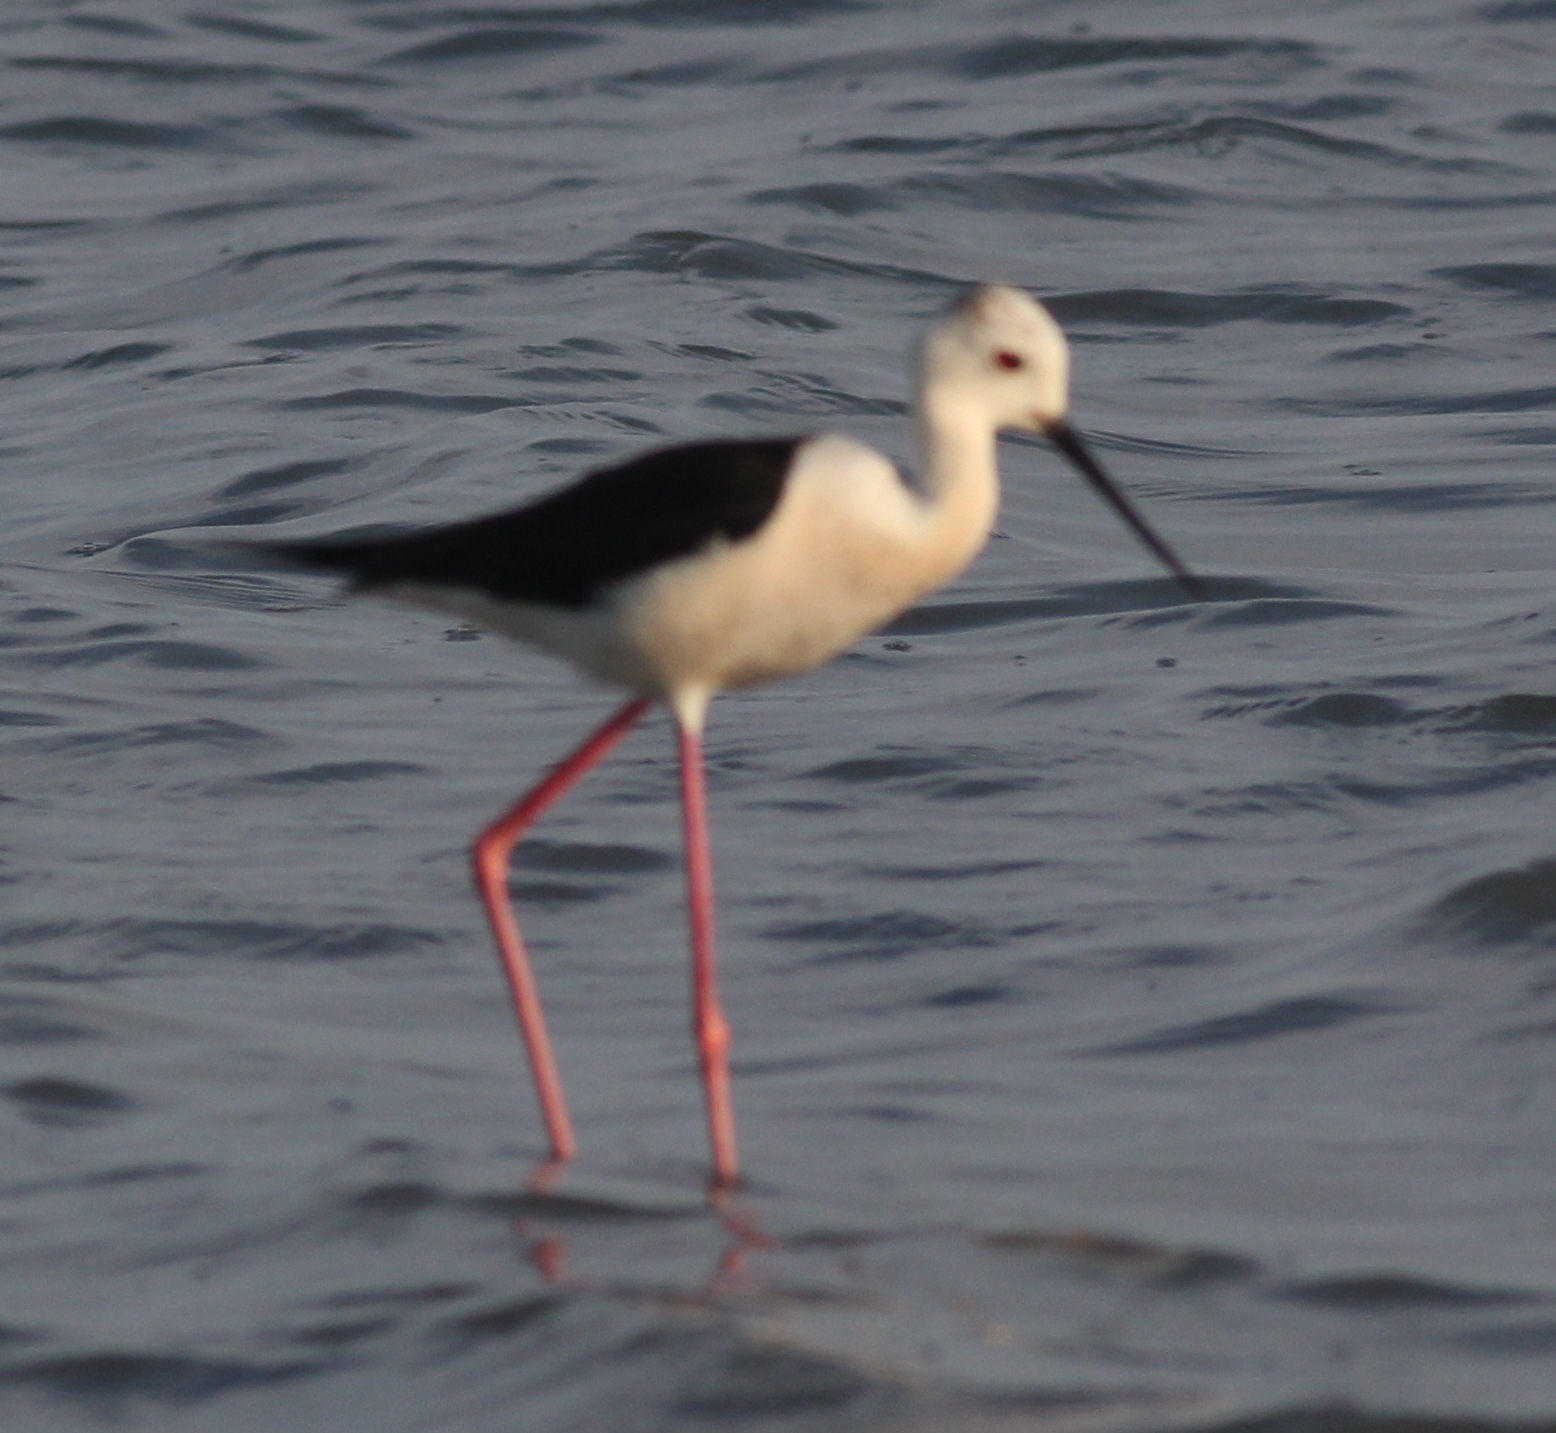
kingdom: Animalia
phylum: Chordata
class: Aves
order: Charadriiformes
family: Recurvirostridae
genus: Himantopus
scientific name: Himantopus himantopus
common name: Black-winged stilt
